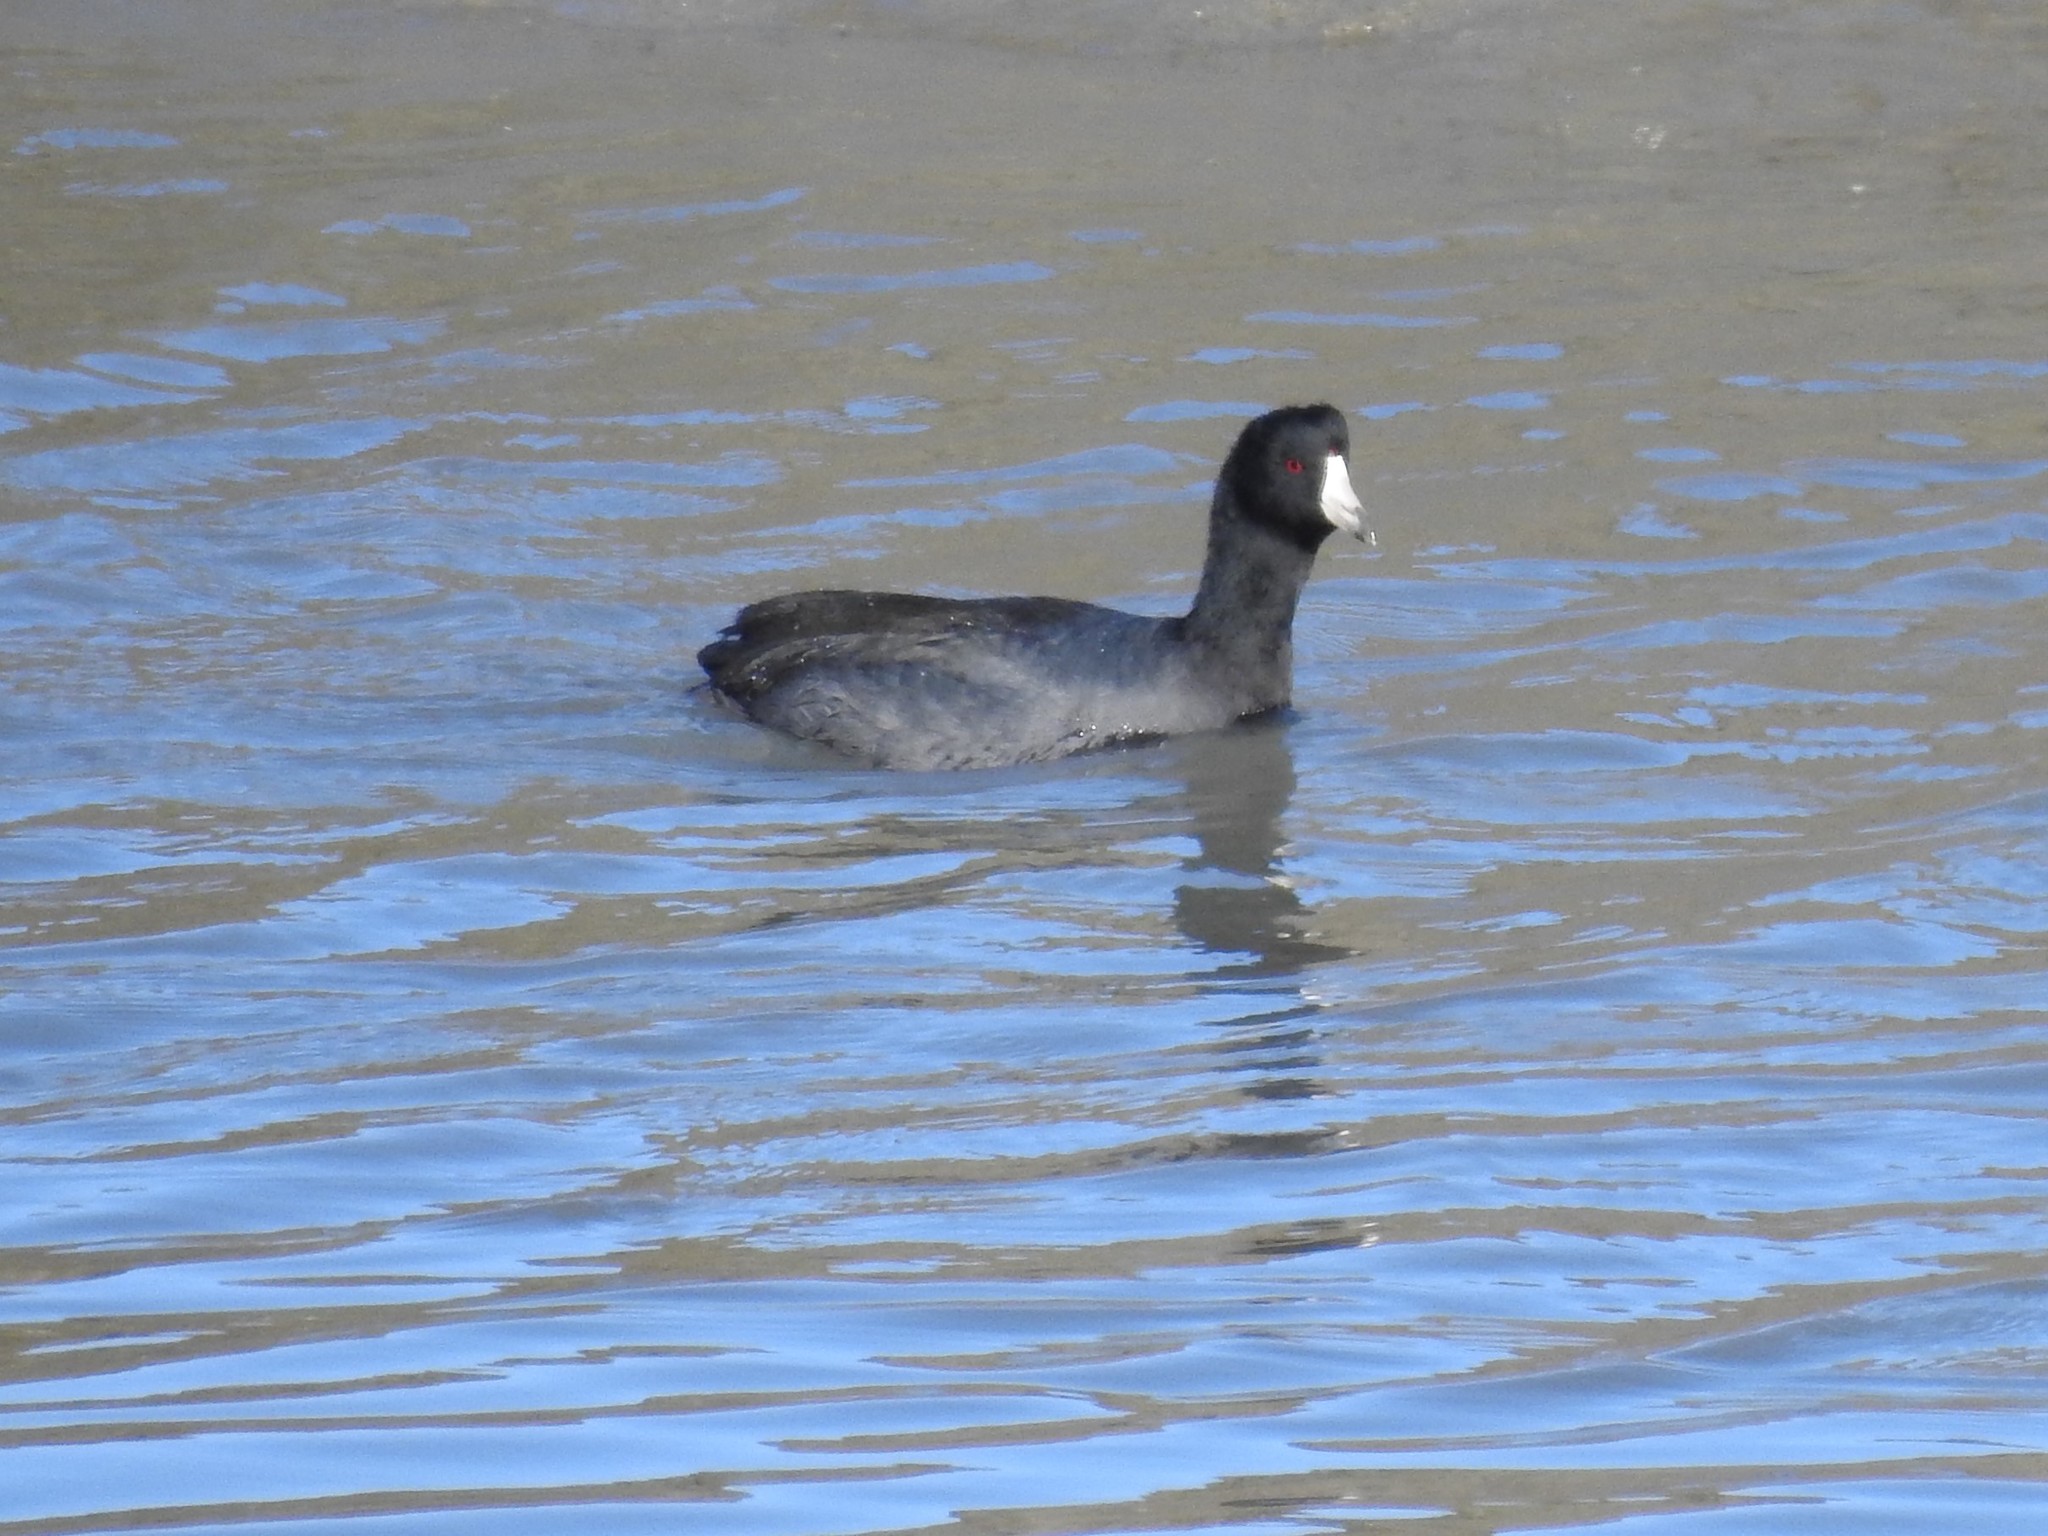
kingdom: Animalia
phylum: Chordata
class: Aves
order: Gruiformes
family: Rallidae
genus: Fulica
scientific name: Fulica americana
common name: American coot
